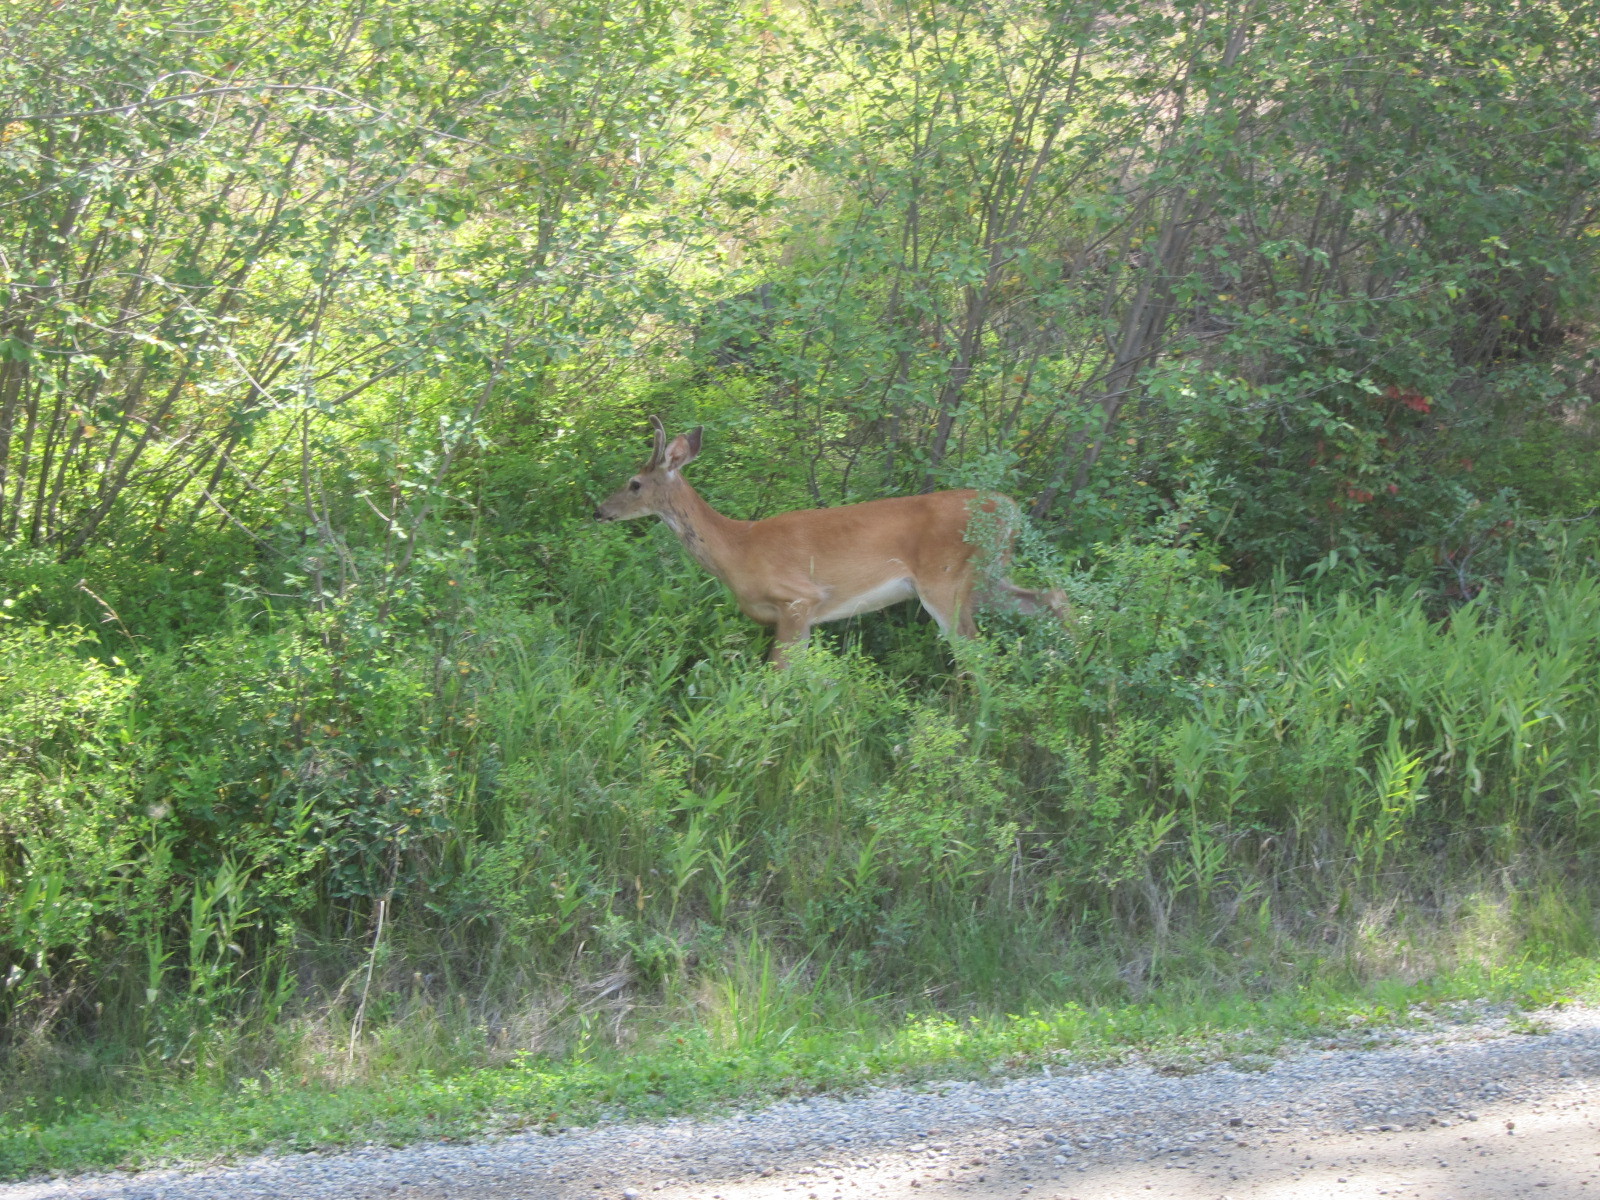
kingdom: Animalia
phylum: Chordata
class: Mammalia
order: Artiodactyla
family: Cervidae
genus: Odocoileus
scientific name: Odocoileus virginianus
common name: White-tailed deer
